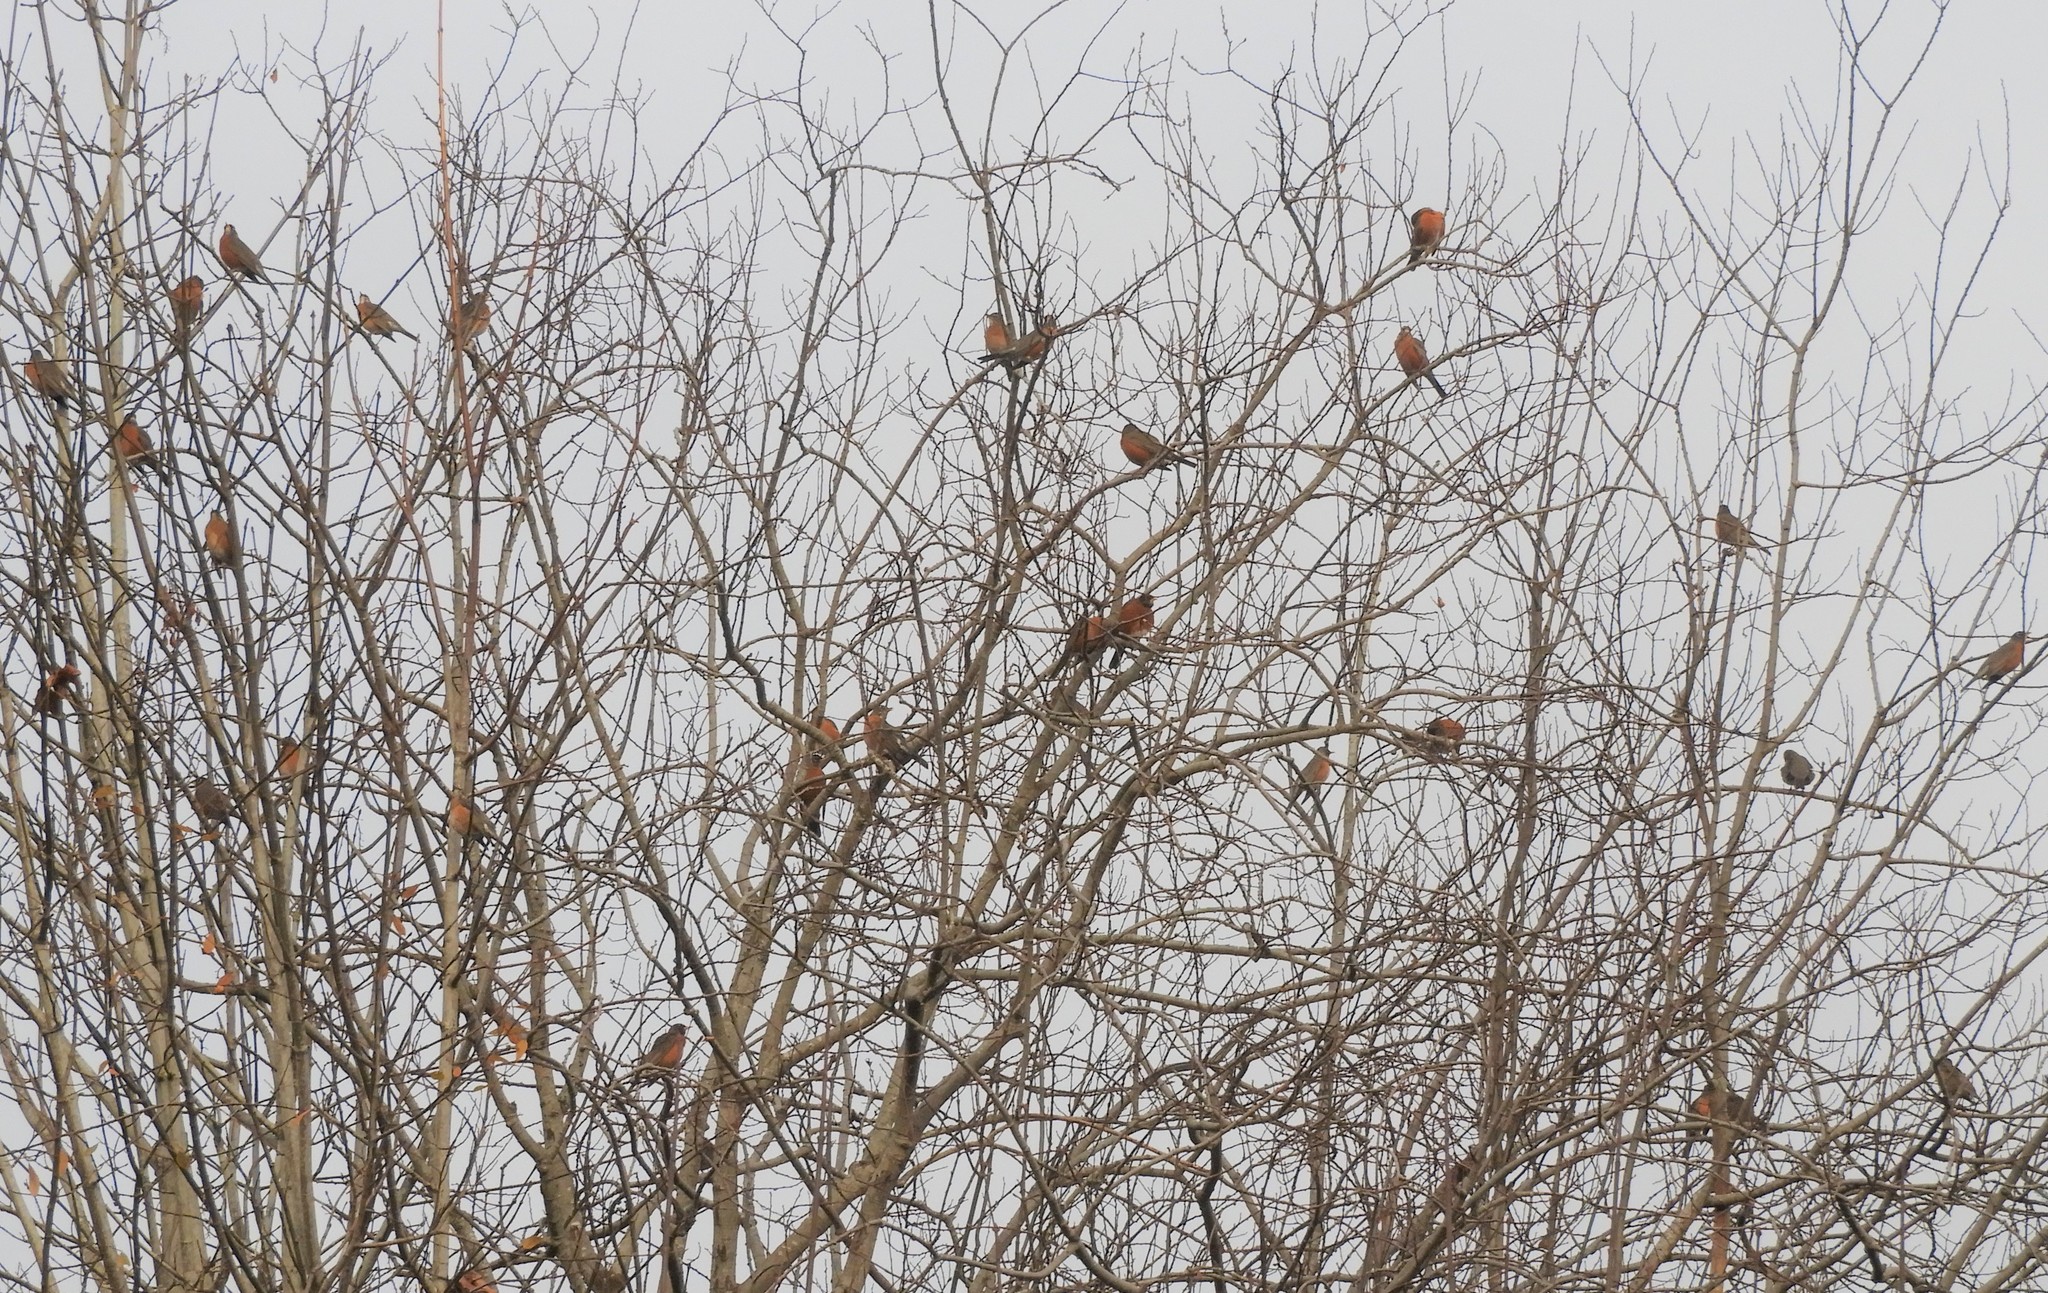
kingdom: Animalia
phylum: Chordata
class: Aves
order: Passeriformes
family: Turdidae
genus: Turdus
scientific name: Turdus migratorius
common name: American robin
